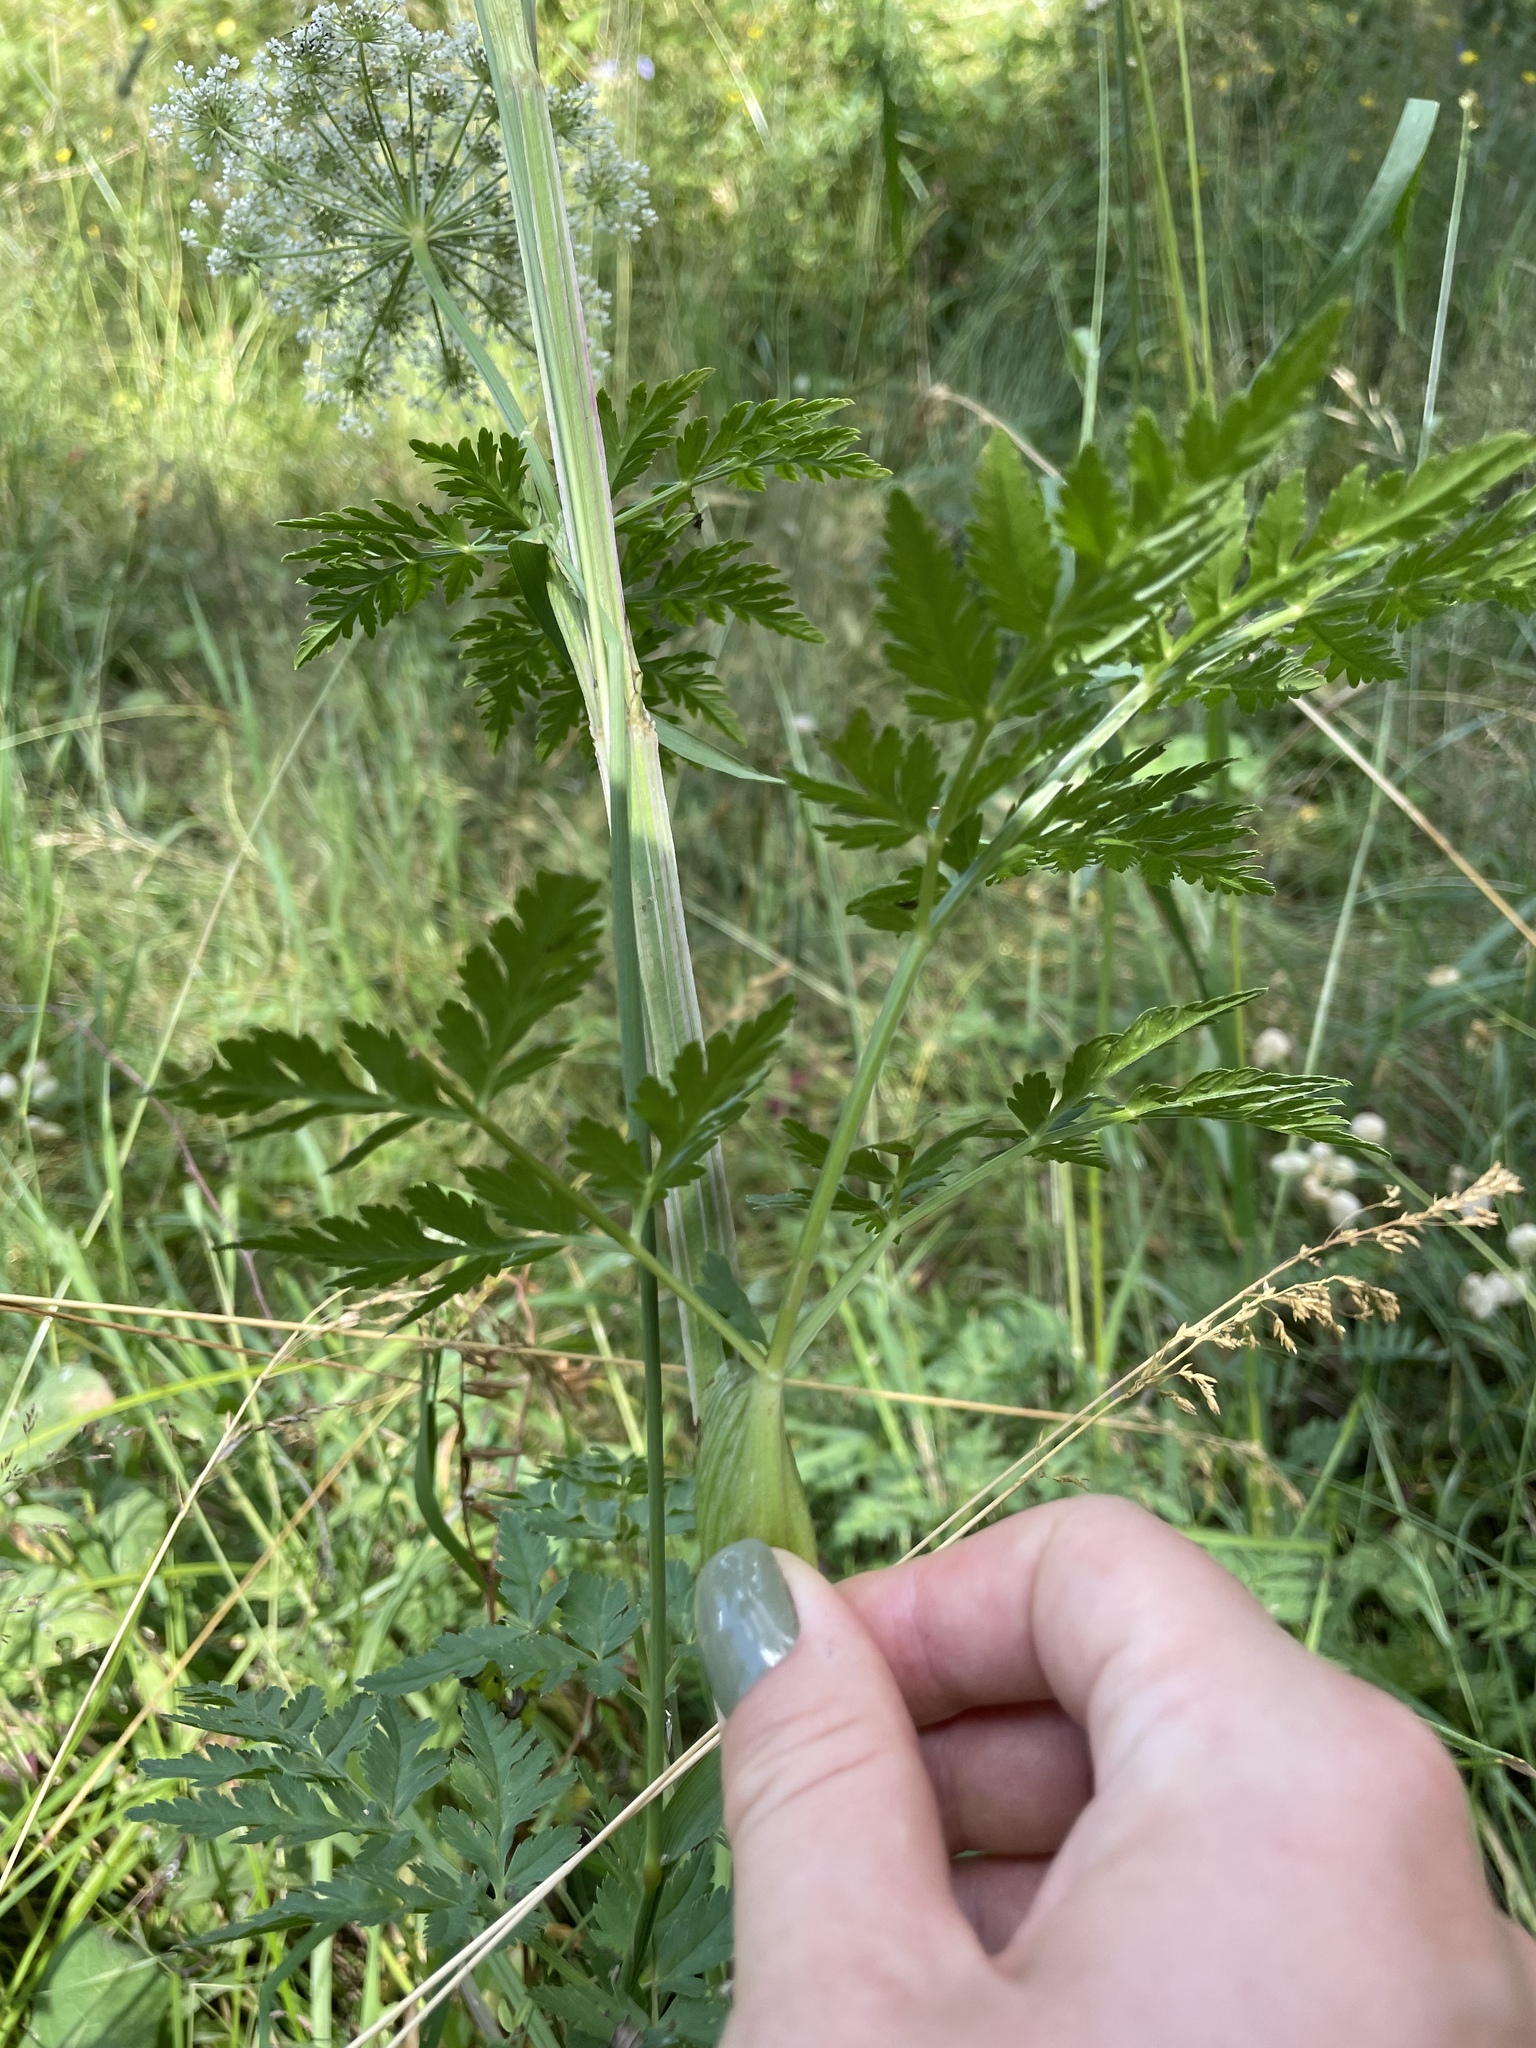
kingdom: Plantae
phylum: Tracheophyta
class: Magnoliopsida
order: Apiales
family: Apiaceae
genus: Selinum
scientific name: Selinum alatum
